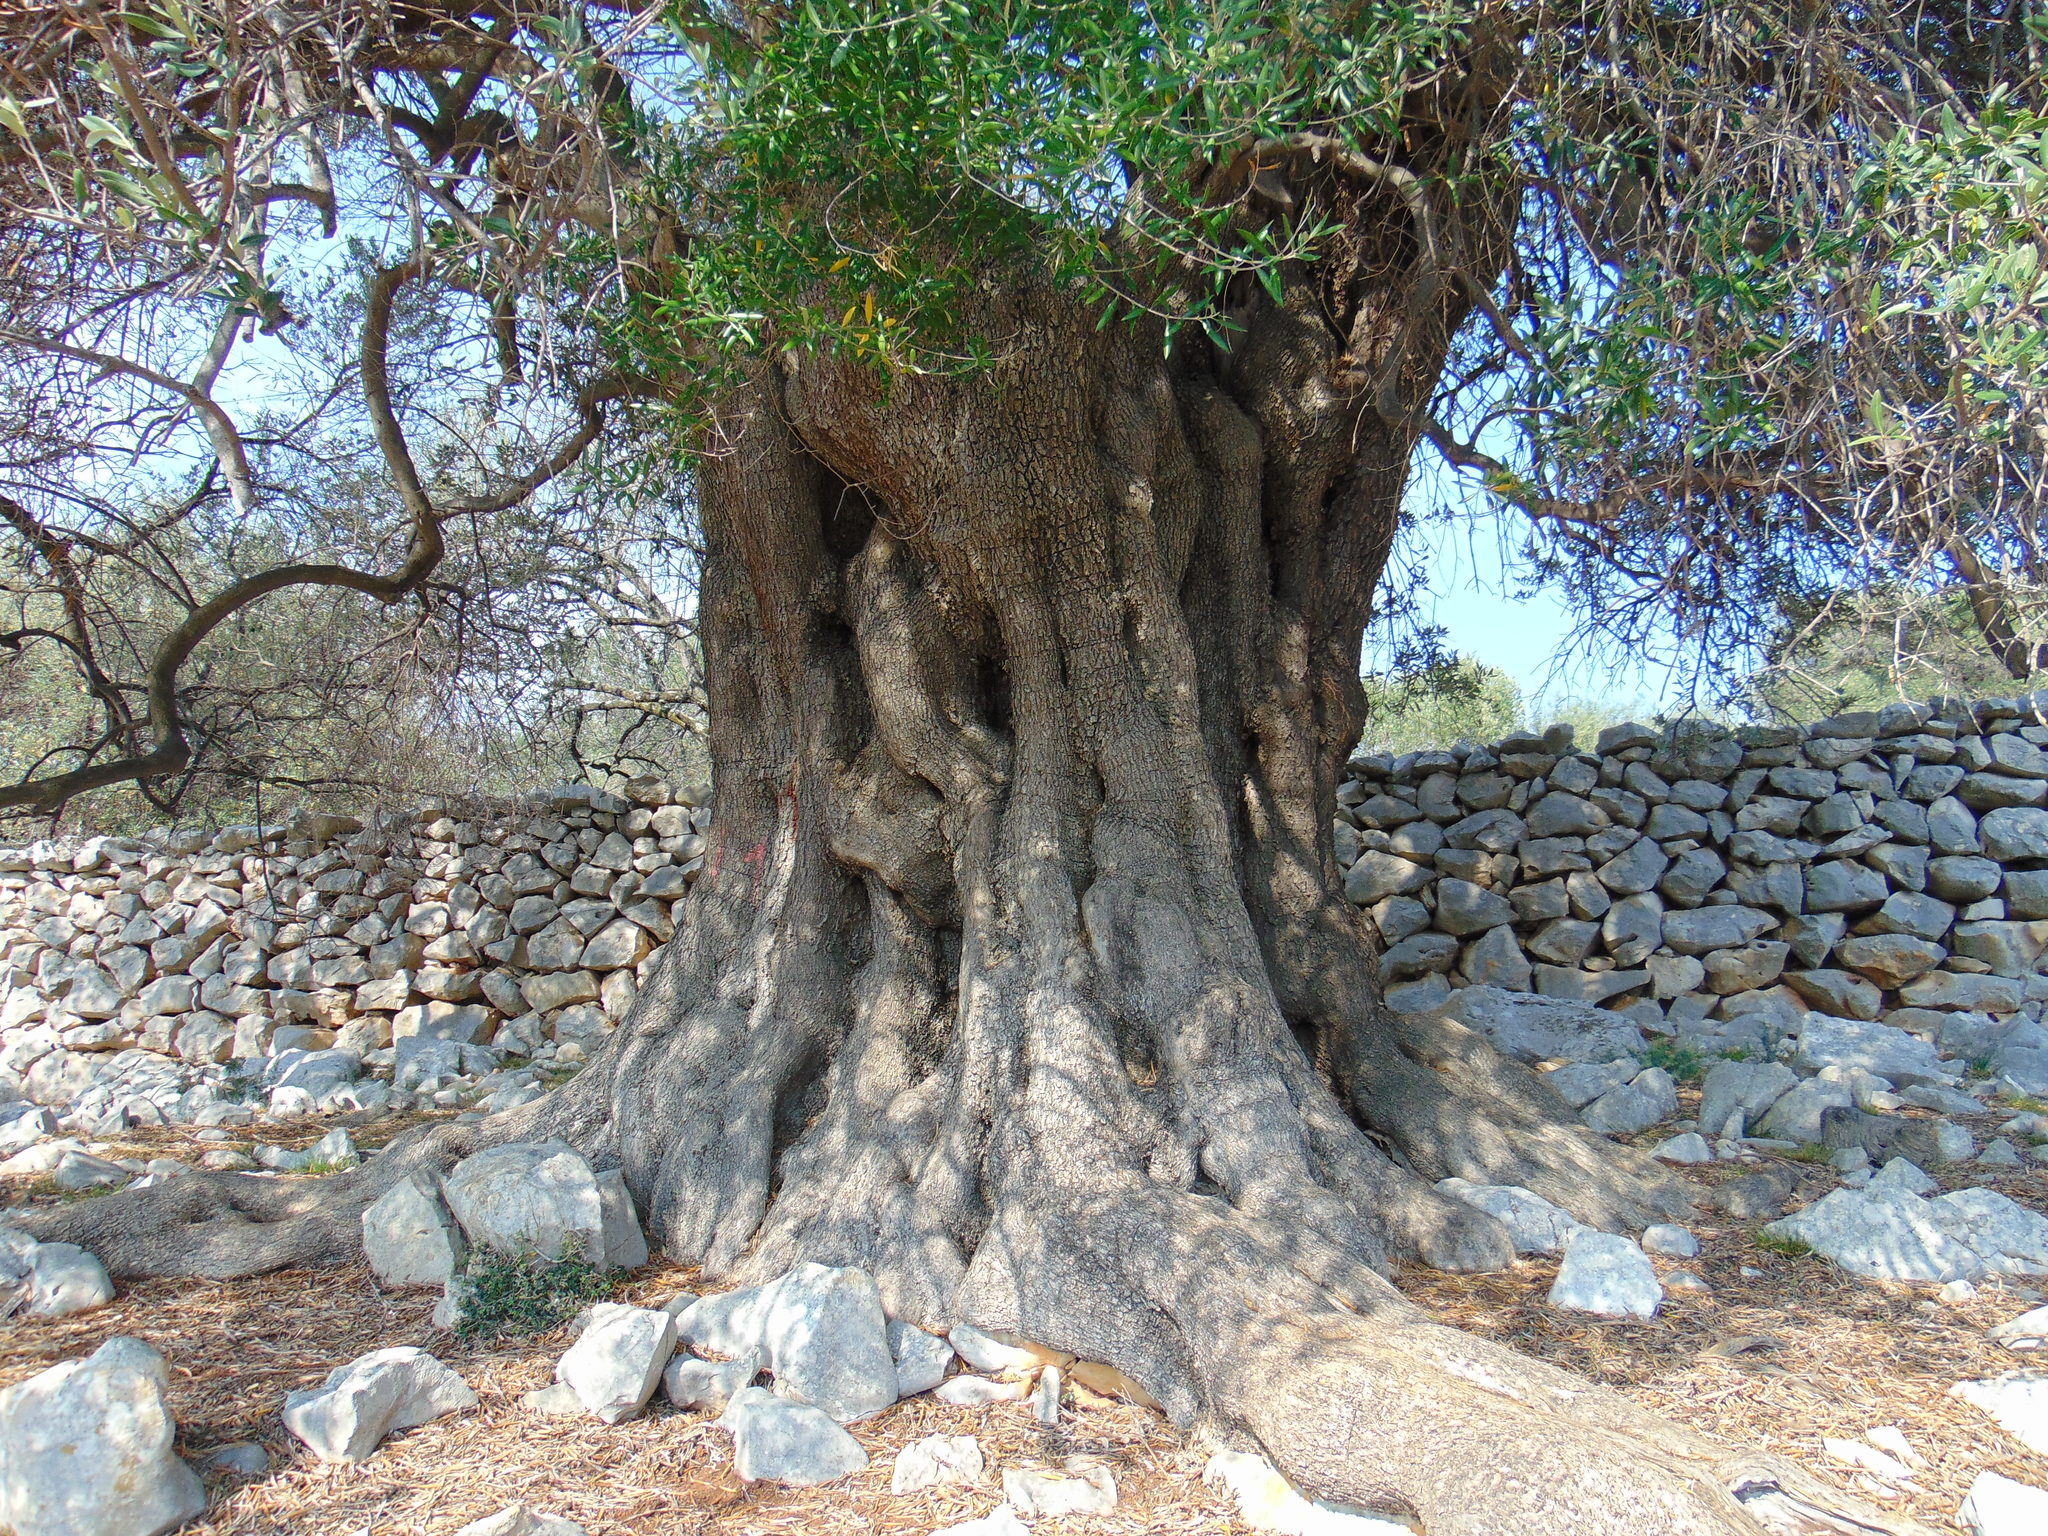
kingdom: Plantae
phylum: Tracheophyta
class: Magnoliopsida
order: Lamiales
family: Oleaceae
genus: Olea
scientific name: Olea europaea
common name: Olive
